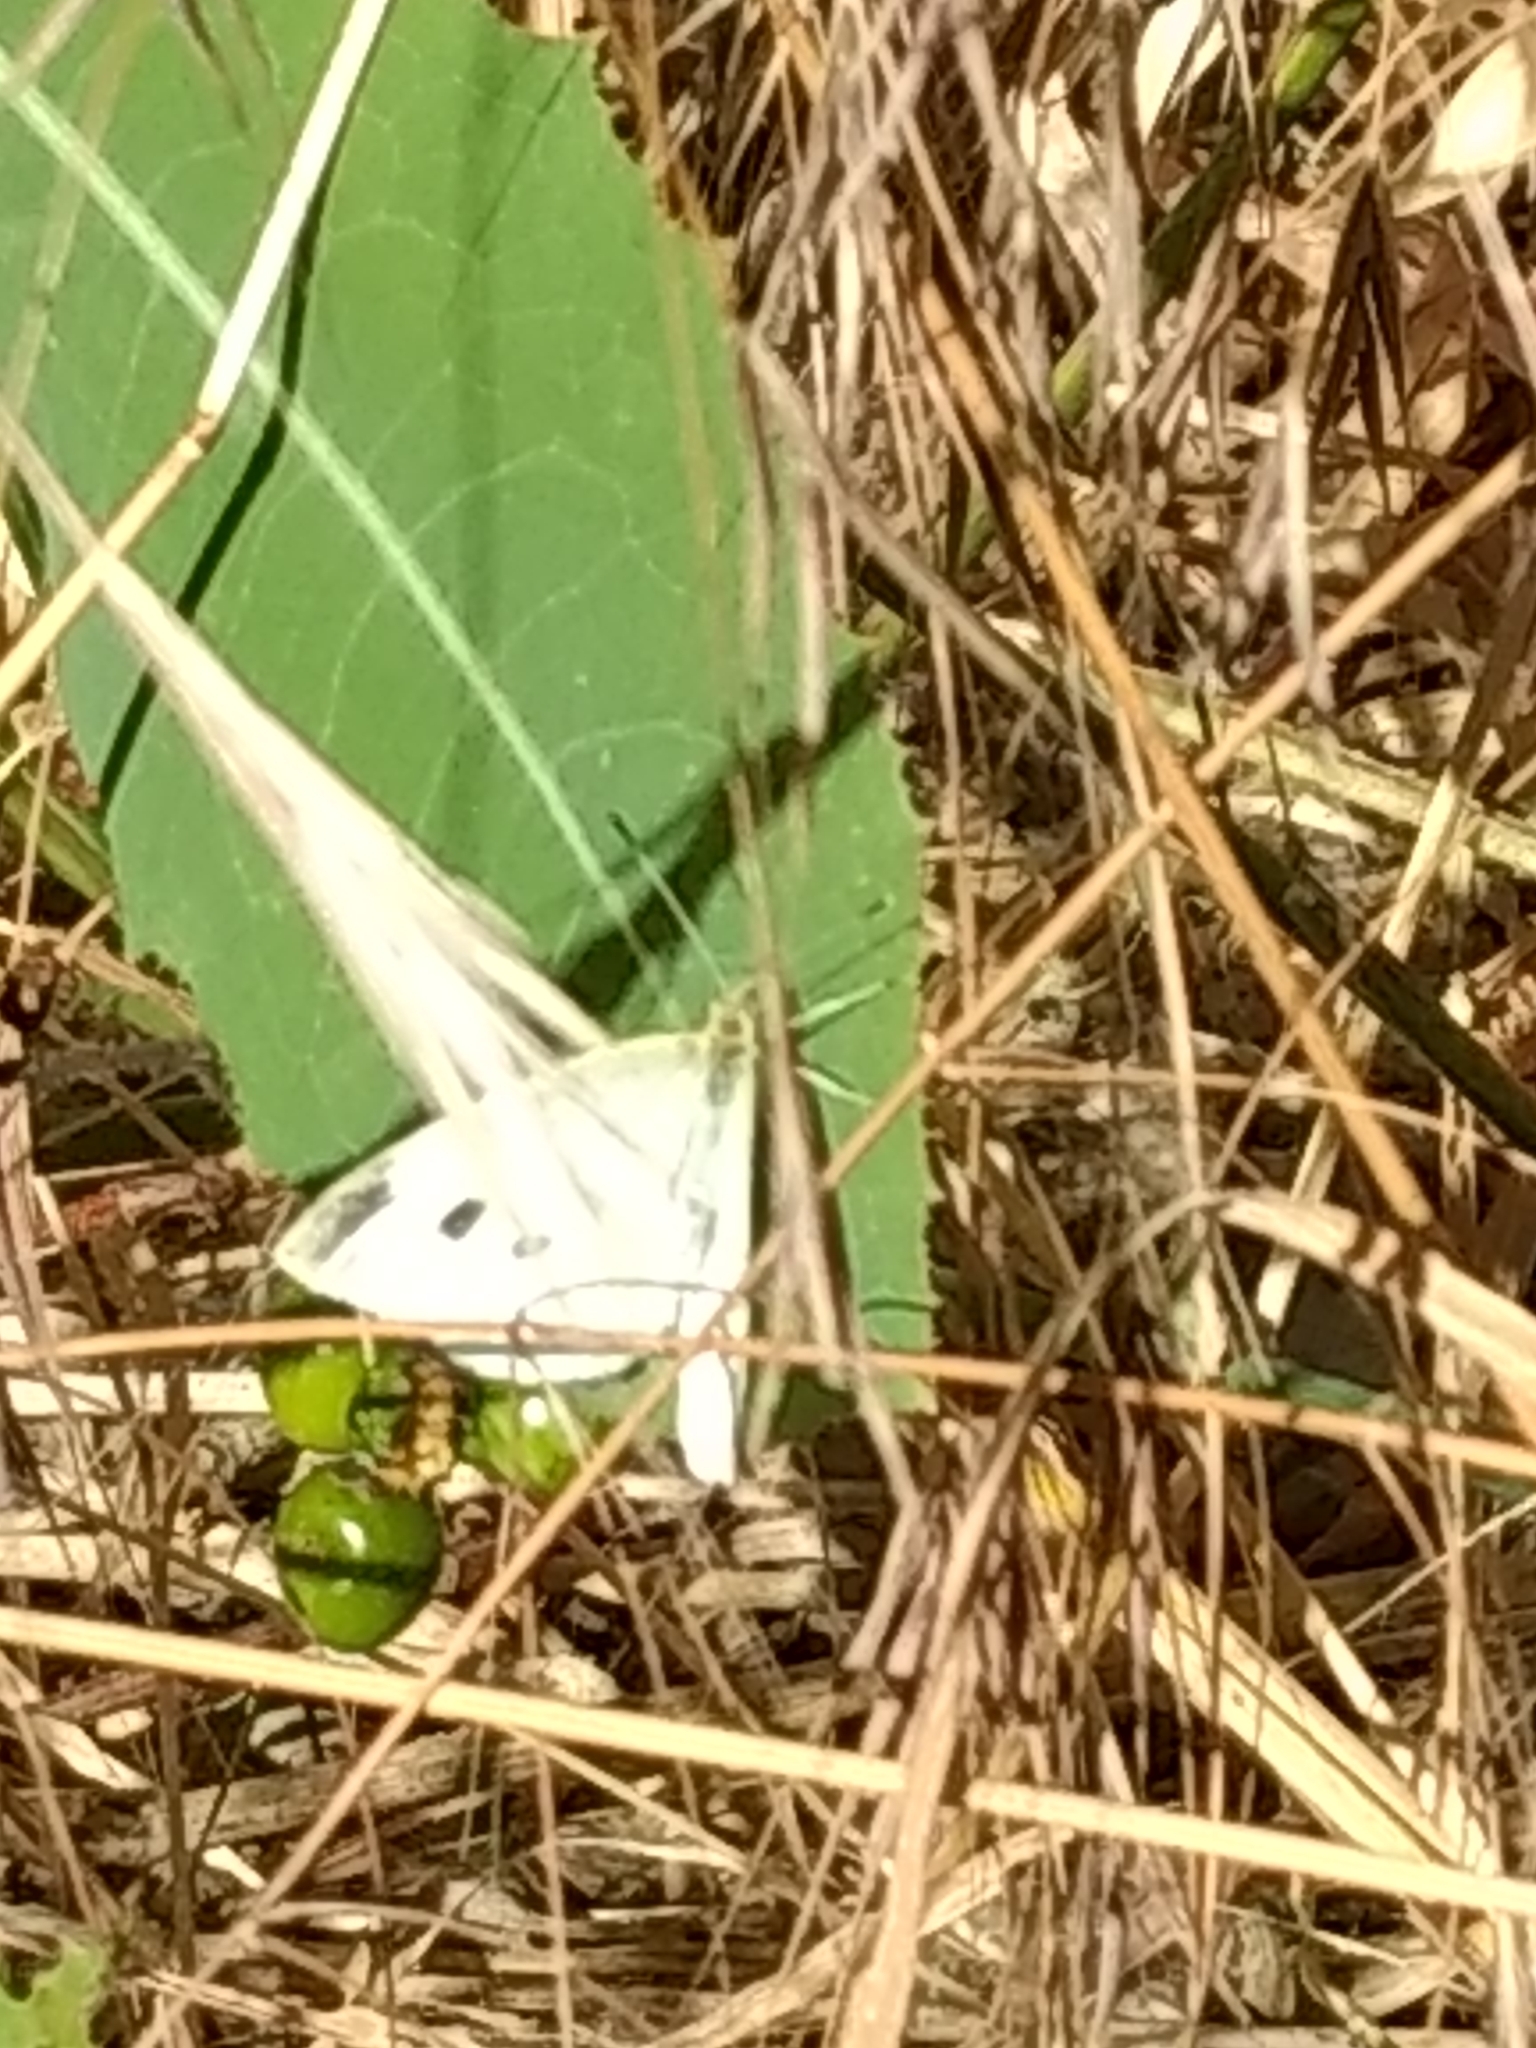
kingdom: Animalia
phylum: Arthropoda
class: Insecta
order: Lepidoptera
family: Pieridae
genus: Pieris
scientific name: Pieris rapae
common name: Small white
